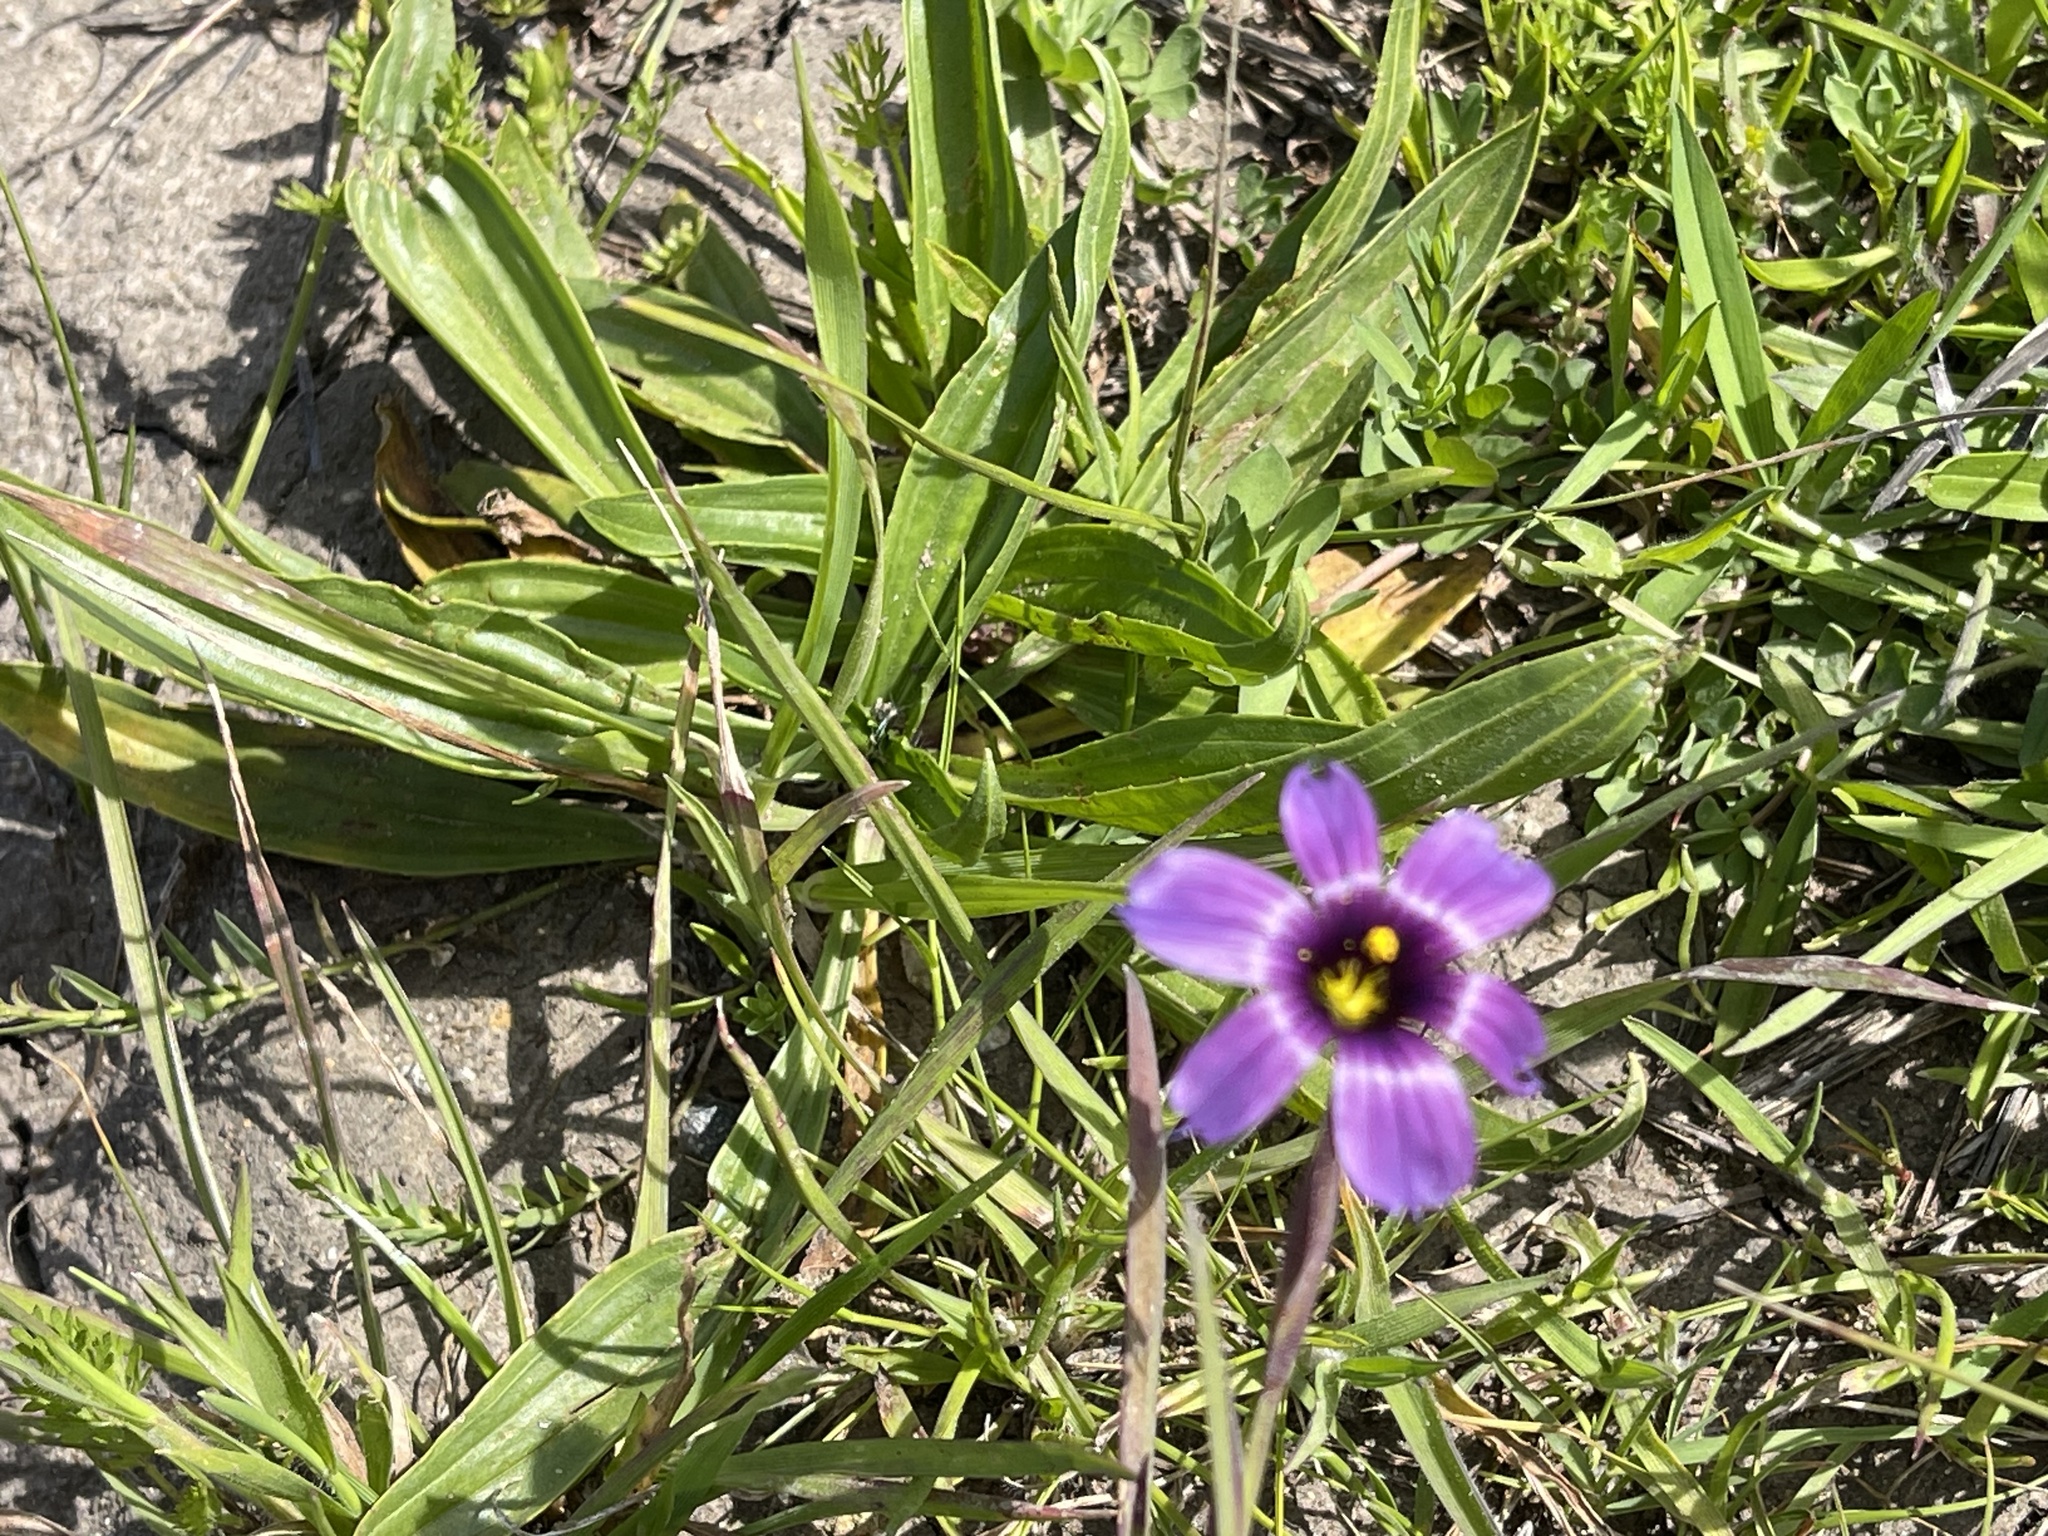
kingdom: Plantae
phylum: Tracheophyta
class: Liliopsida
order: Asparagales
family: Iridaceae
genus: Sisyrinchium
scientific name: Sisyrinchium bellum
